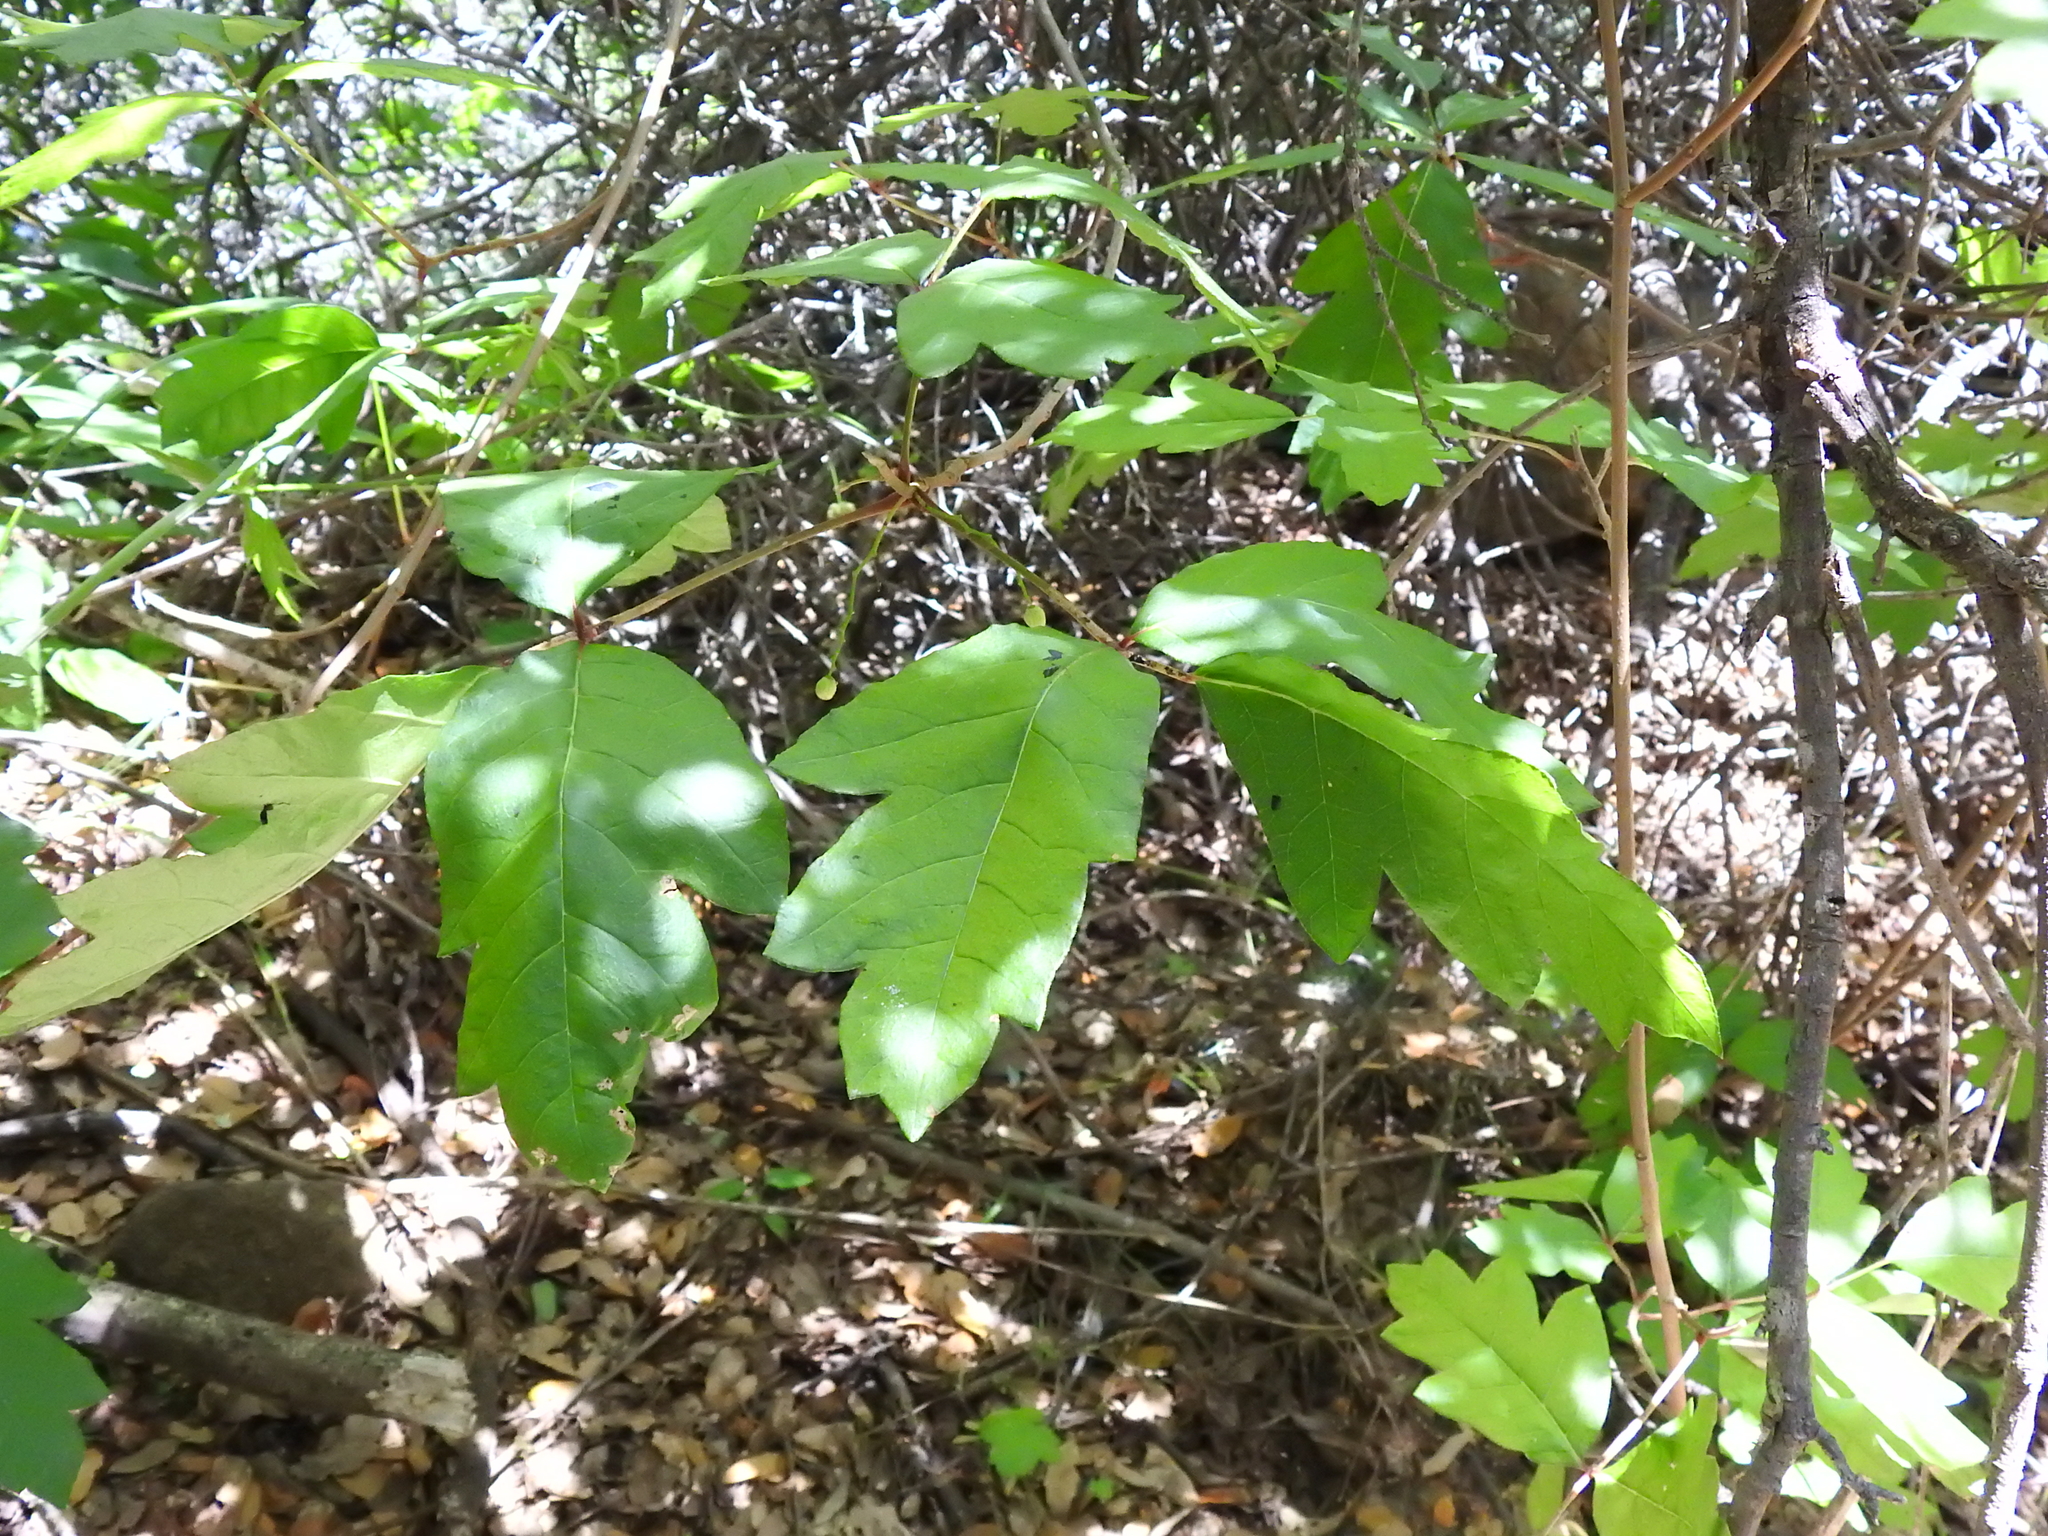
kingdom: Plantae
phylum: Tracheophyta
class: Magnoliopsida
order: Sapindales
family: Anacardiaceae
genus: Toxicodendron
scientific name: Toxicodendron diversilobum
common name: Pacific poison-oak
